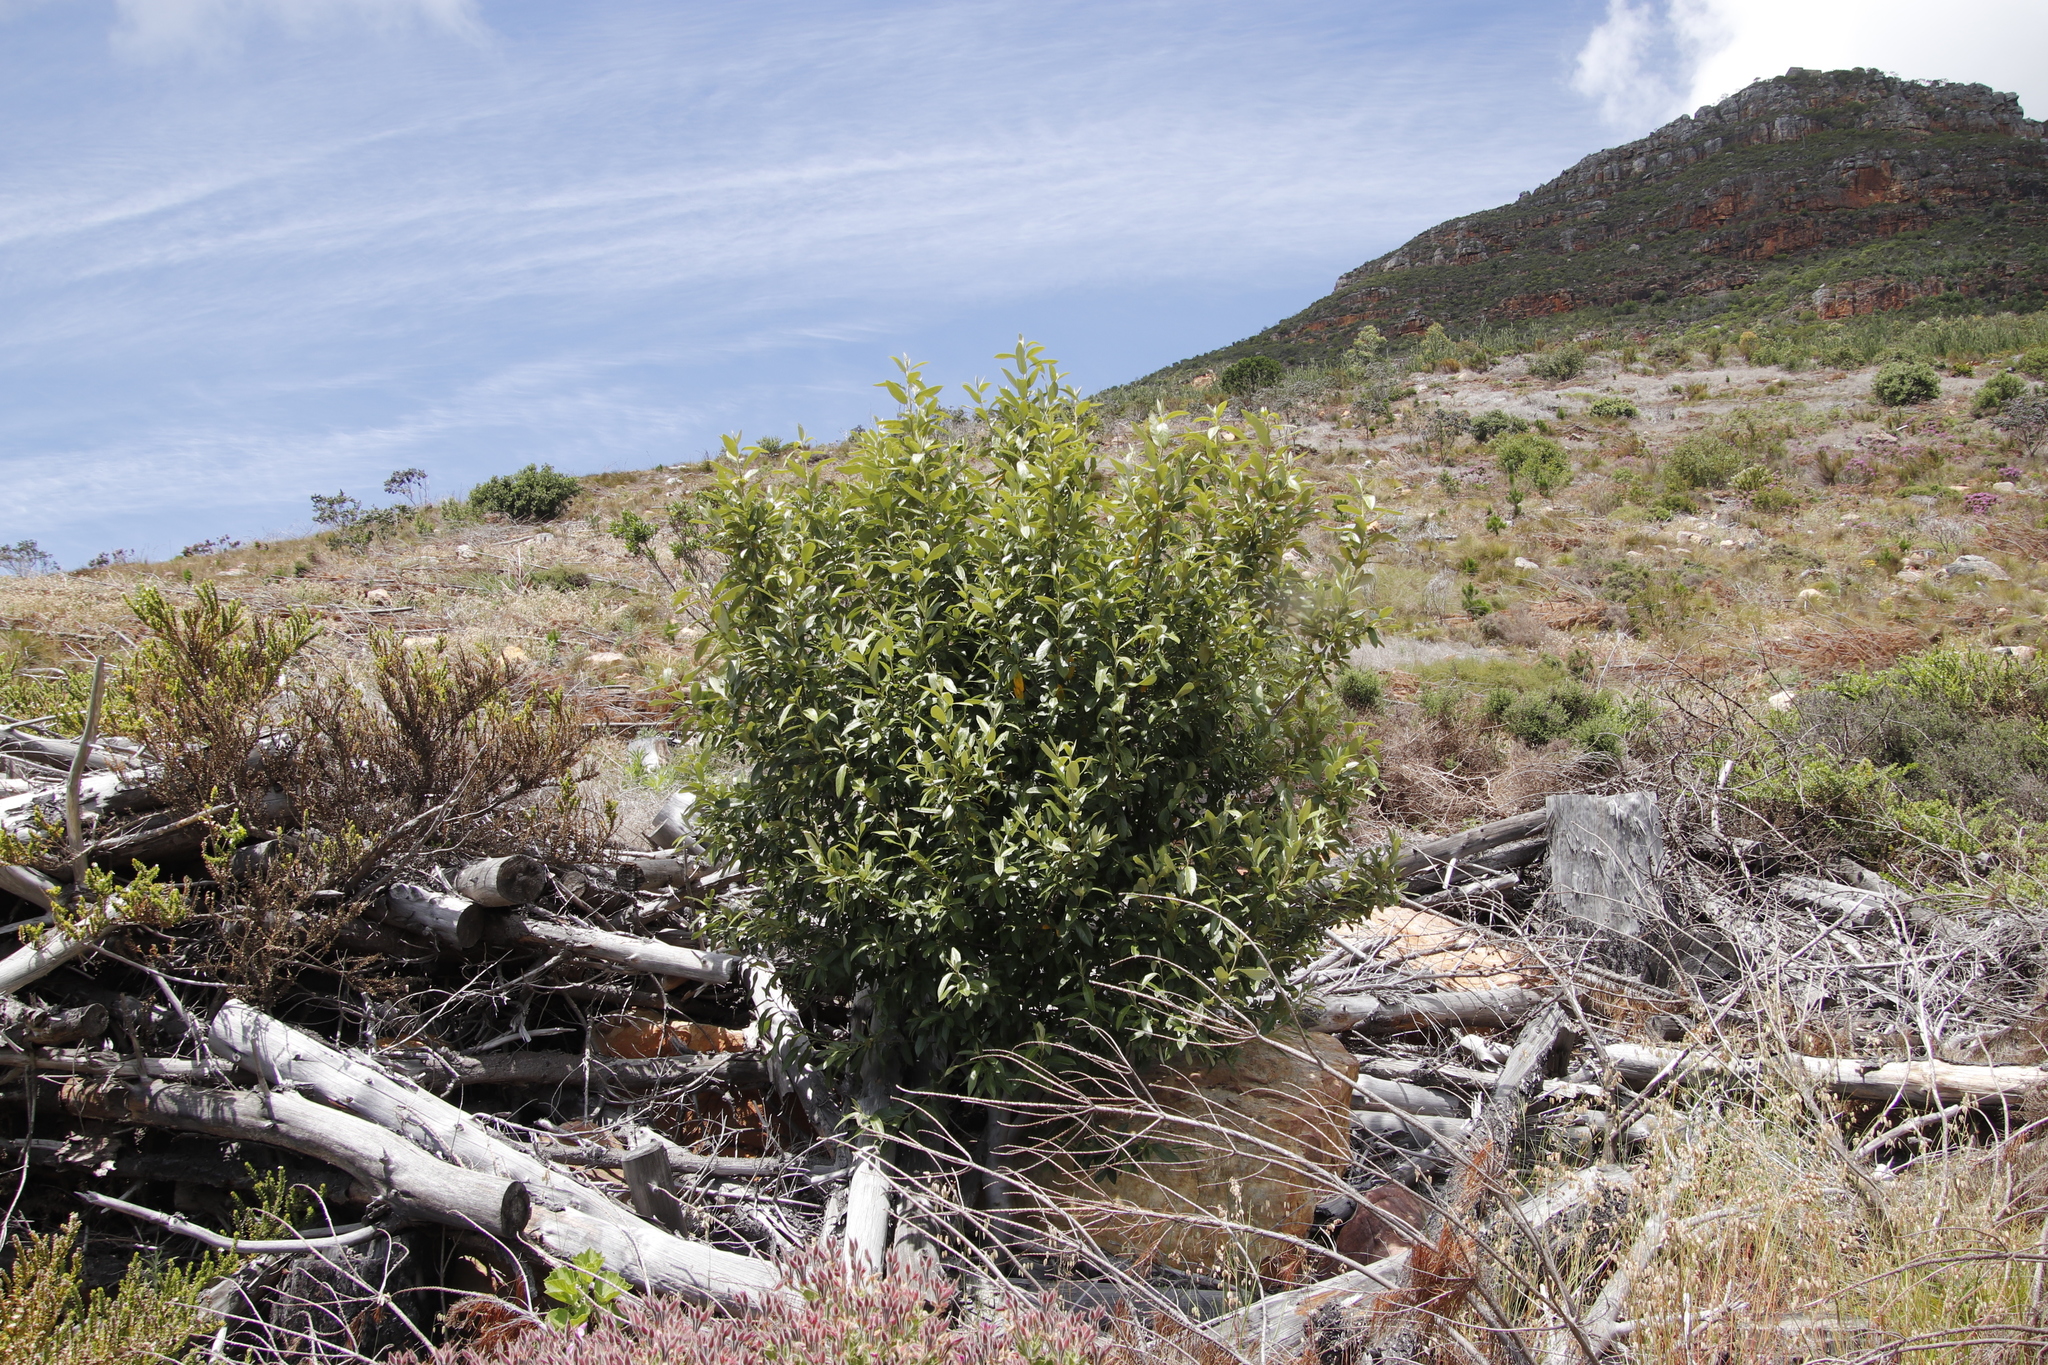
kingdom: Plantae
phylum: Tracheophyta
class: Magnoliopsida
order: Malpighiales
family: Achariaceae
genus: Kiggelaria
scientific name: Kiggelaria africana
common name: Wild peach
